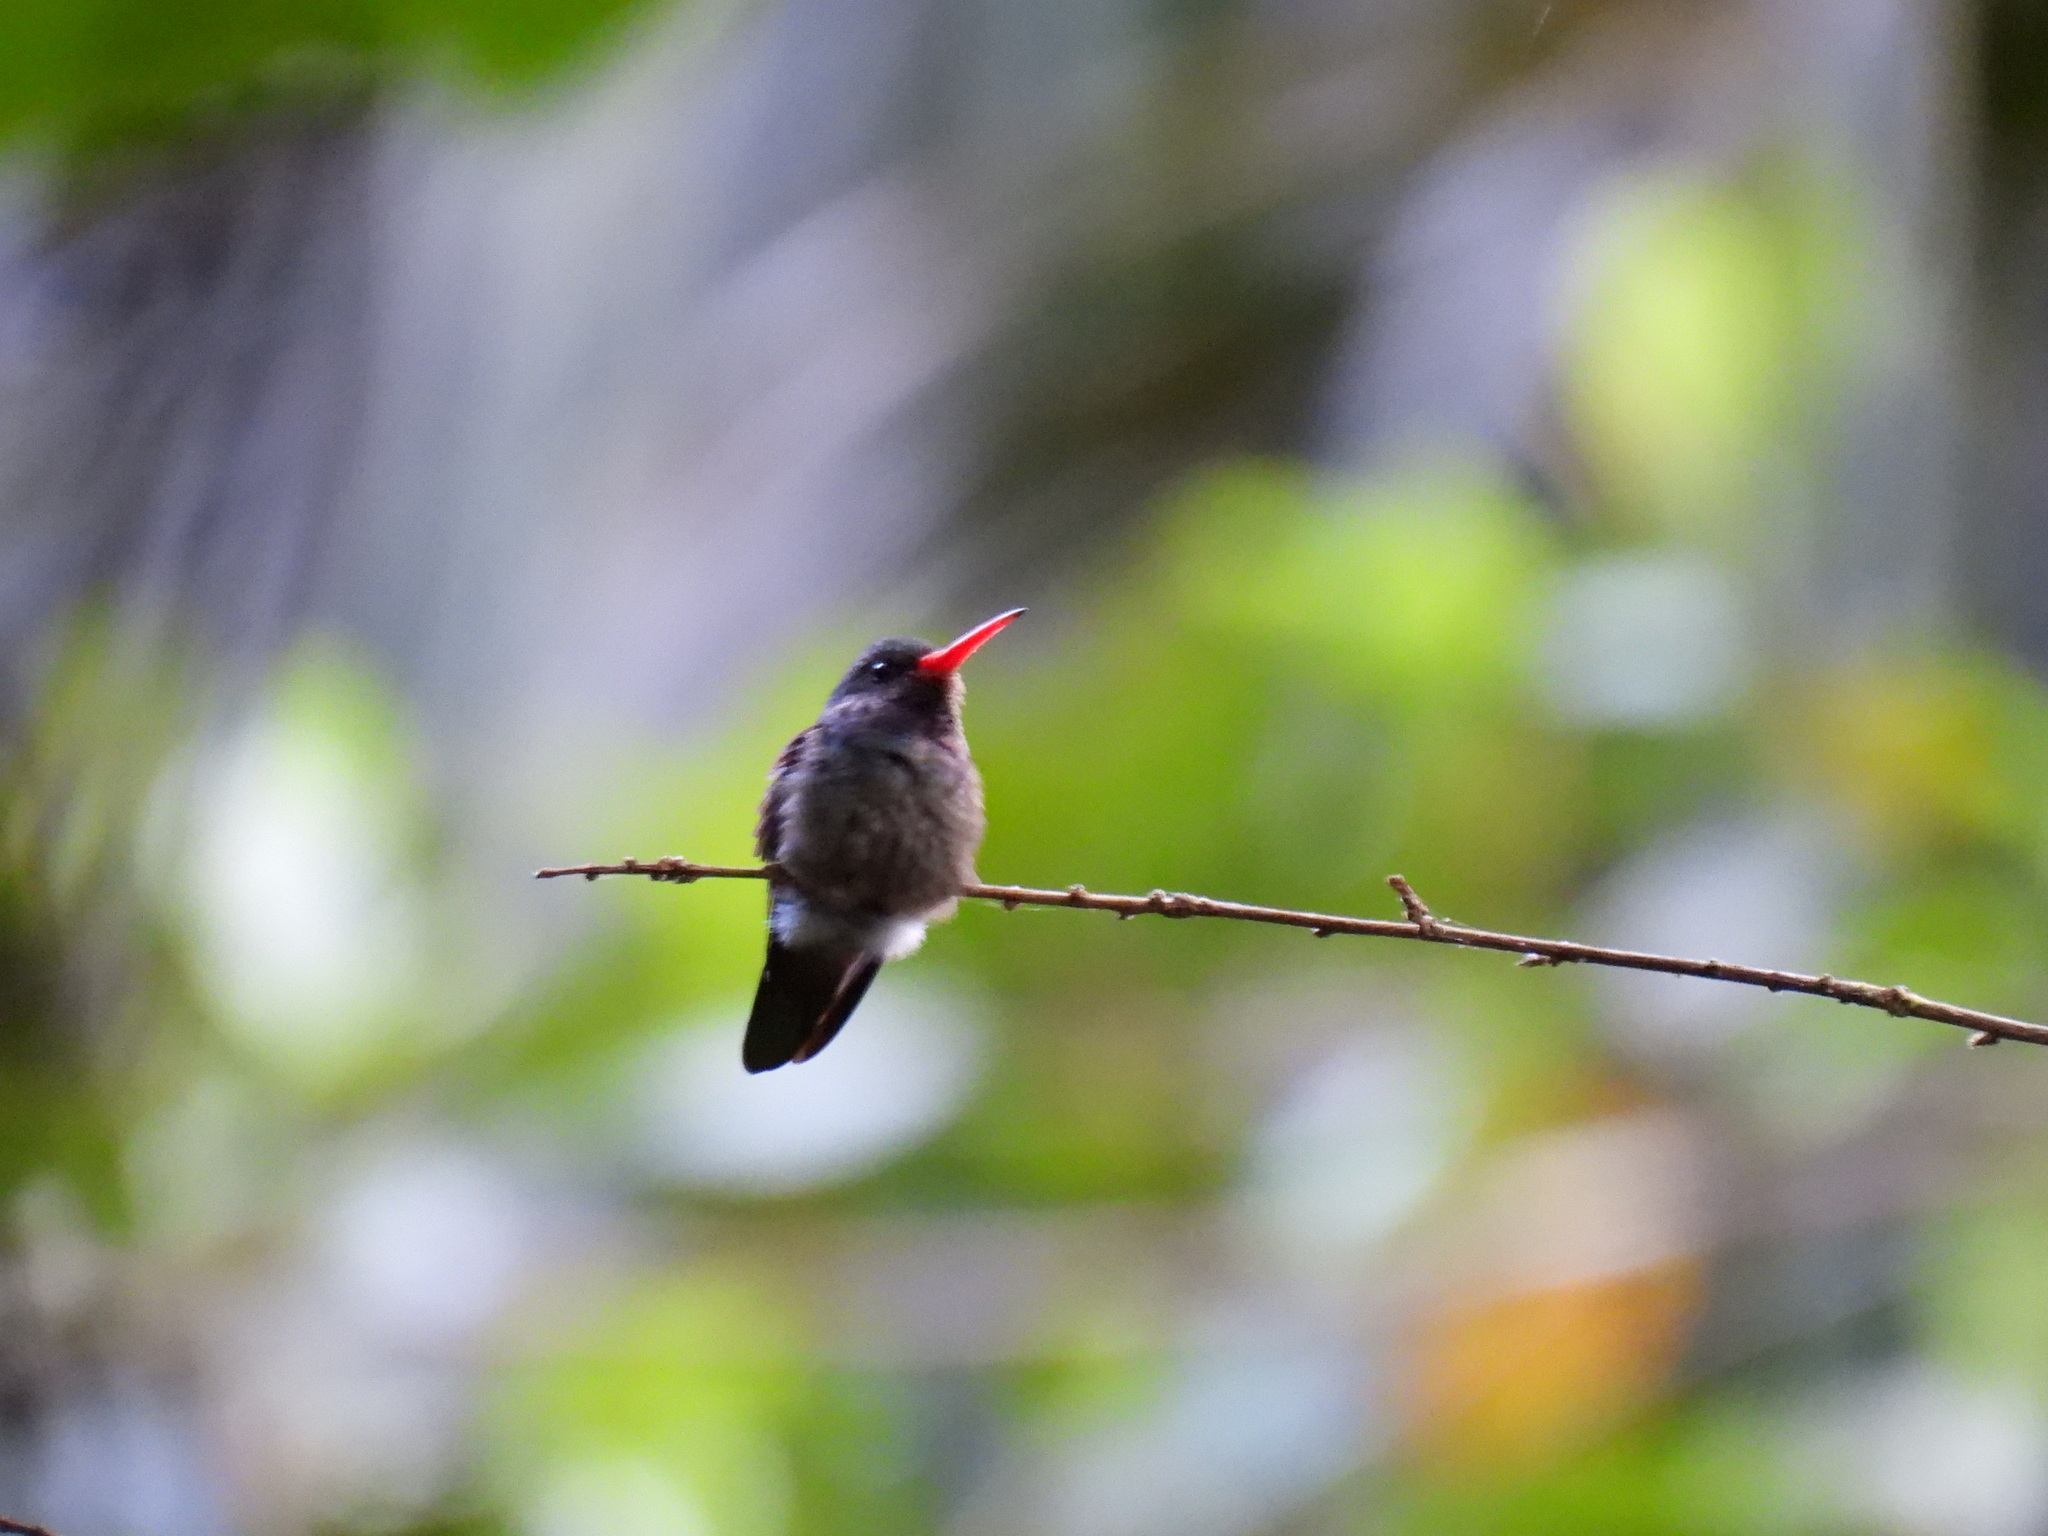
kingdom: Animalia
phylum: Chordata
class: Aves
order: Apodiformes
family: Trochilidae
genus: Chlorestes
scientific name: Chlorestes eliciae
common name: Blue-throated sapphire
